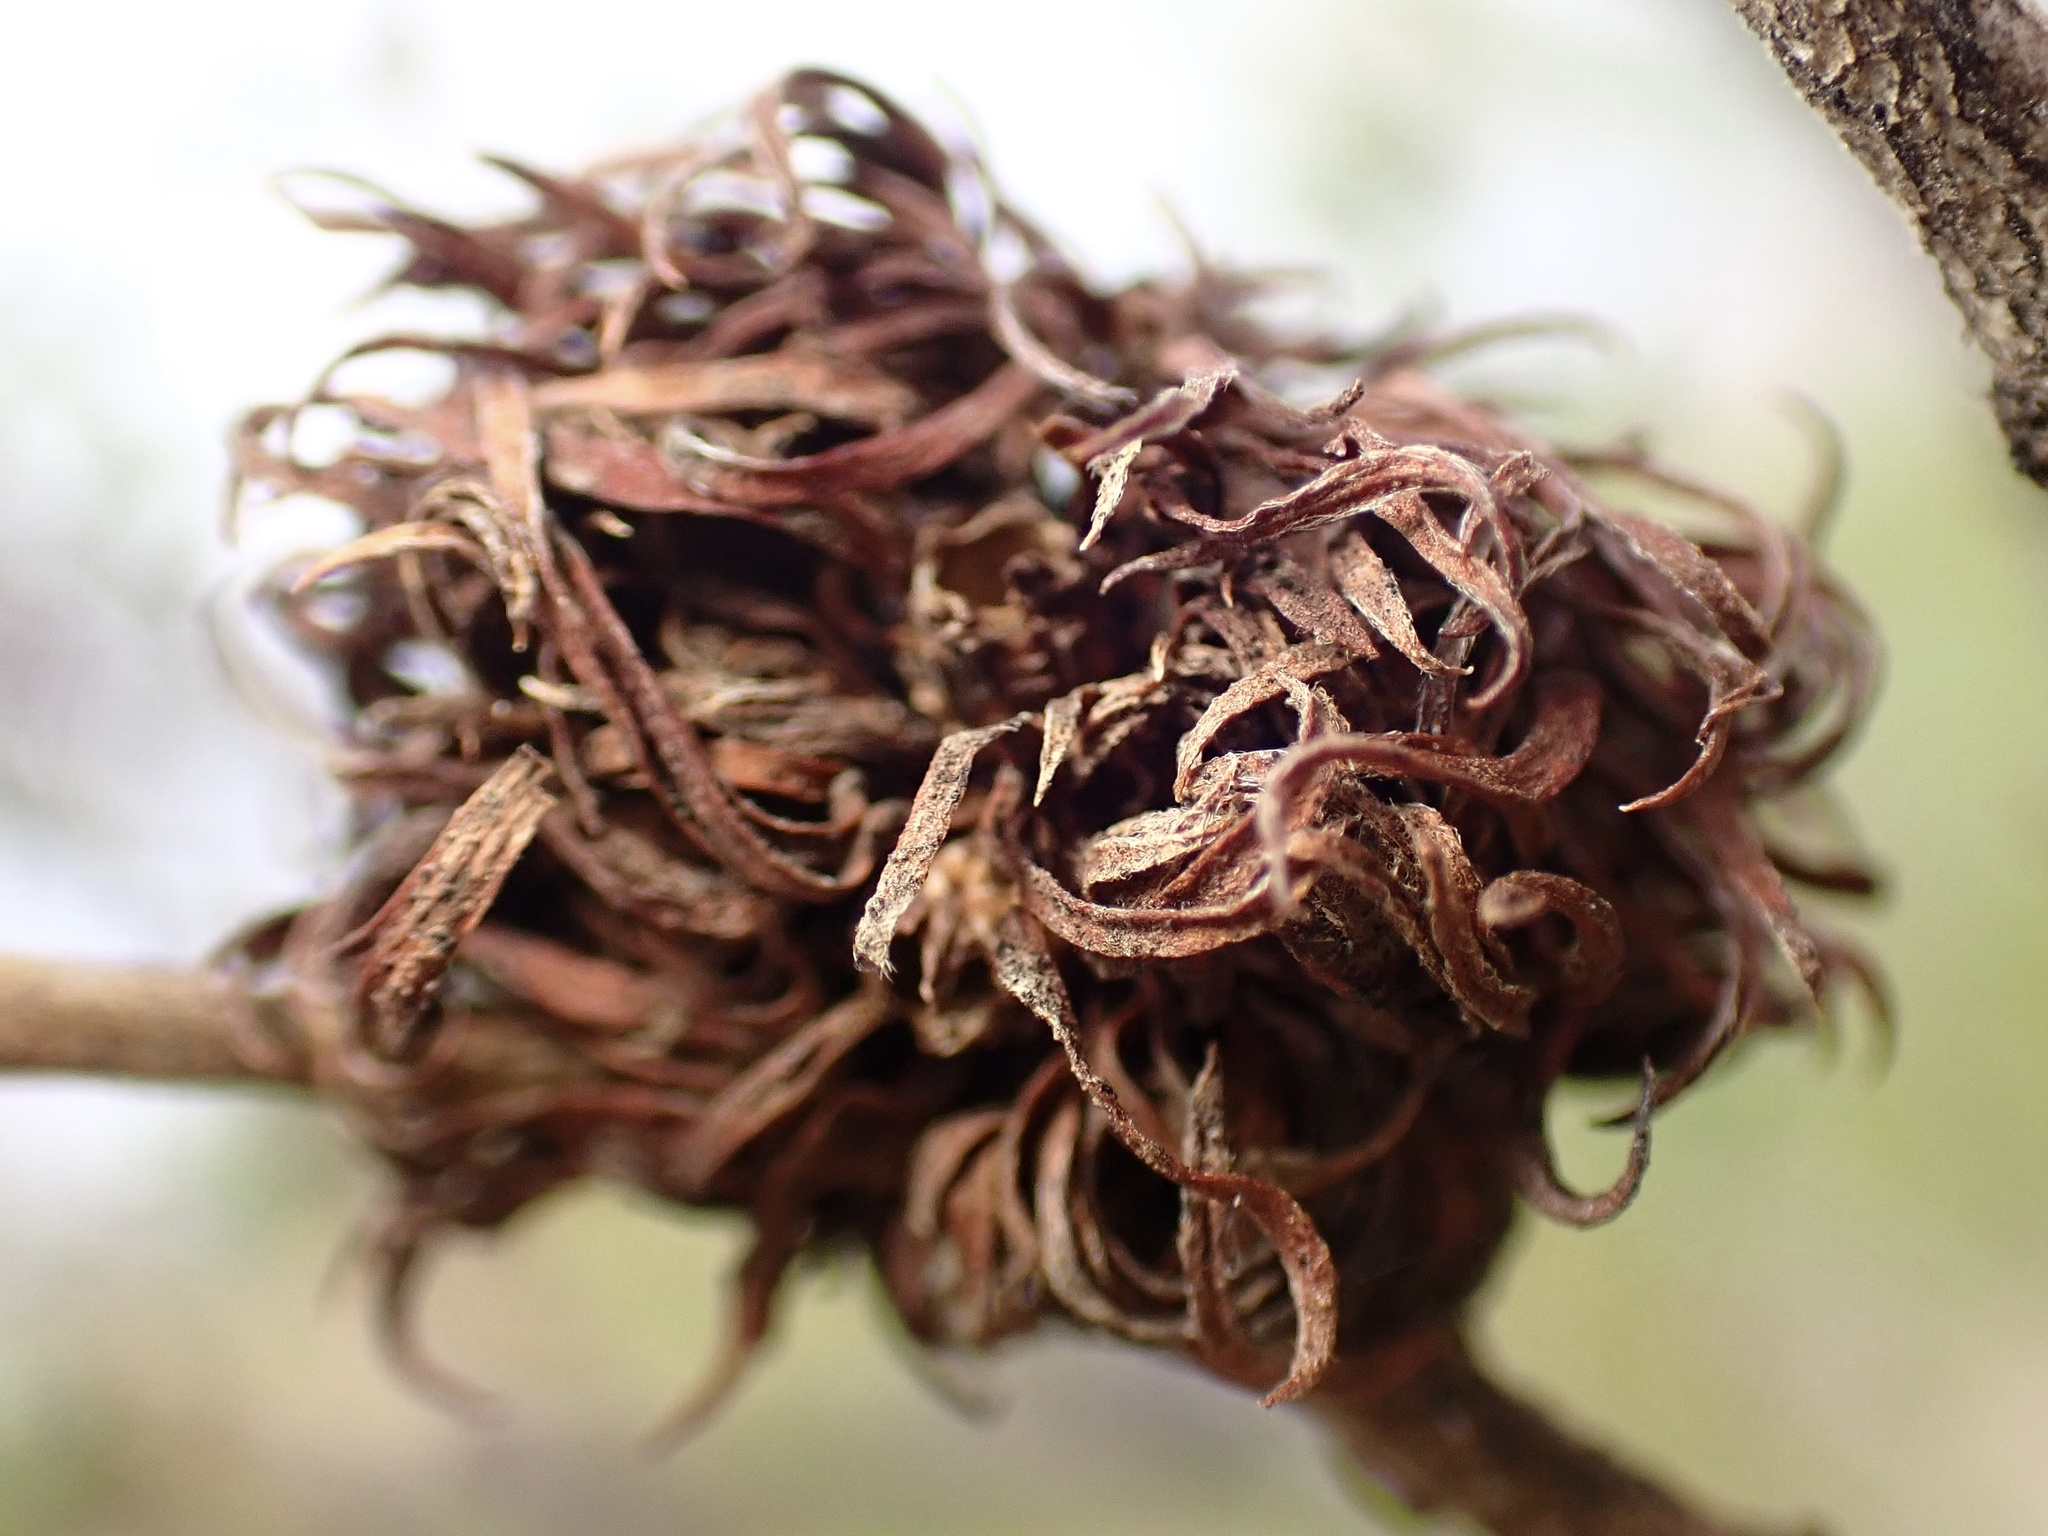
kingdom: Animalia
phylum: Arthropoda
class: Insecta
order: Diptera
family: Cecidomyiidae
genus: Asphondylia
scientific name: Asphondylia auripila
